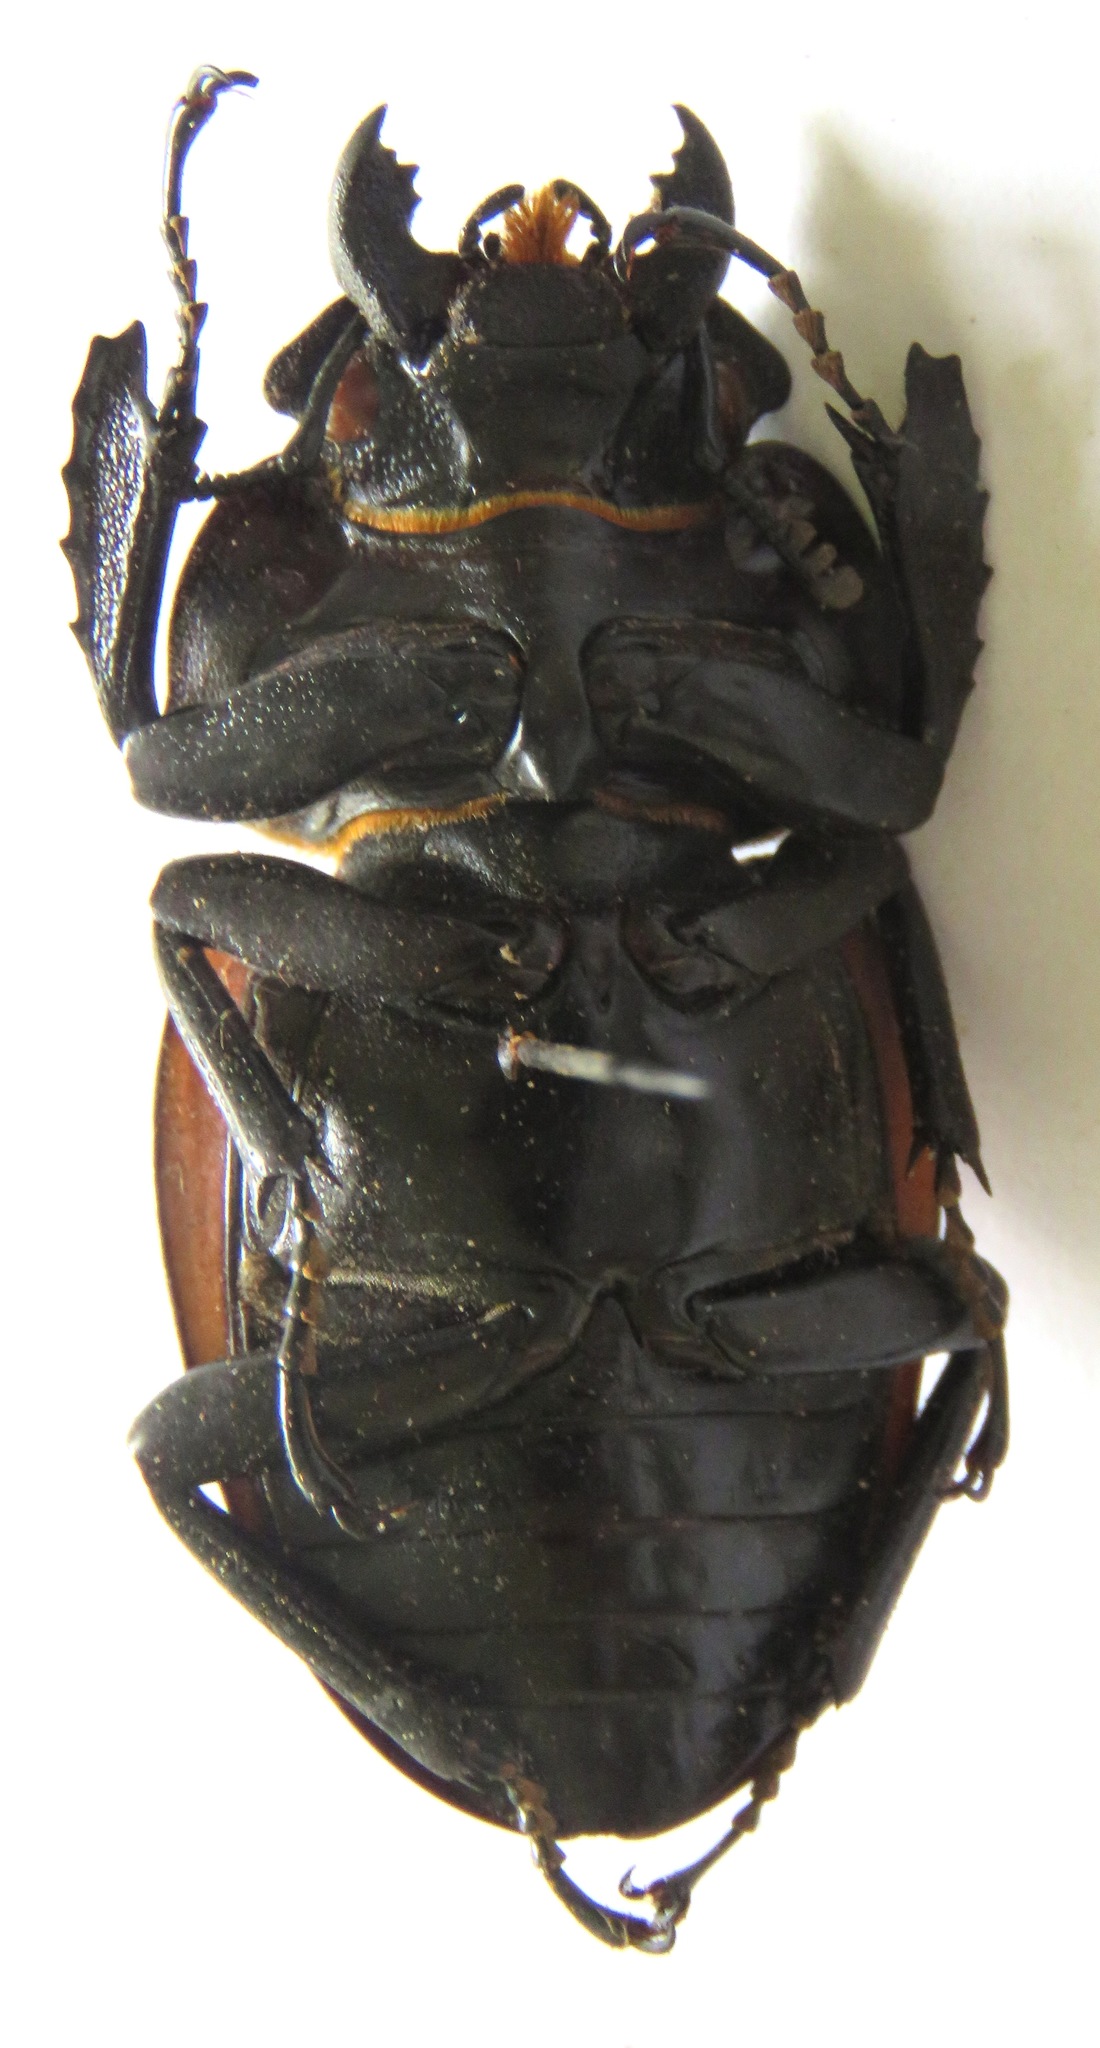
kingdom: Animalia
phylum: Arthropoda
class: Insecta
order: Coleoptera
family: Lucanidae
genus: Odontolabis
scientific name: Odontolabis cuvera
